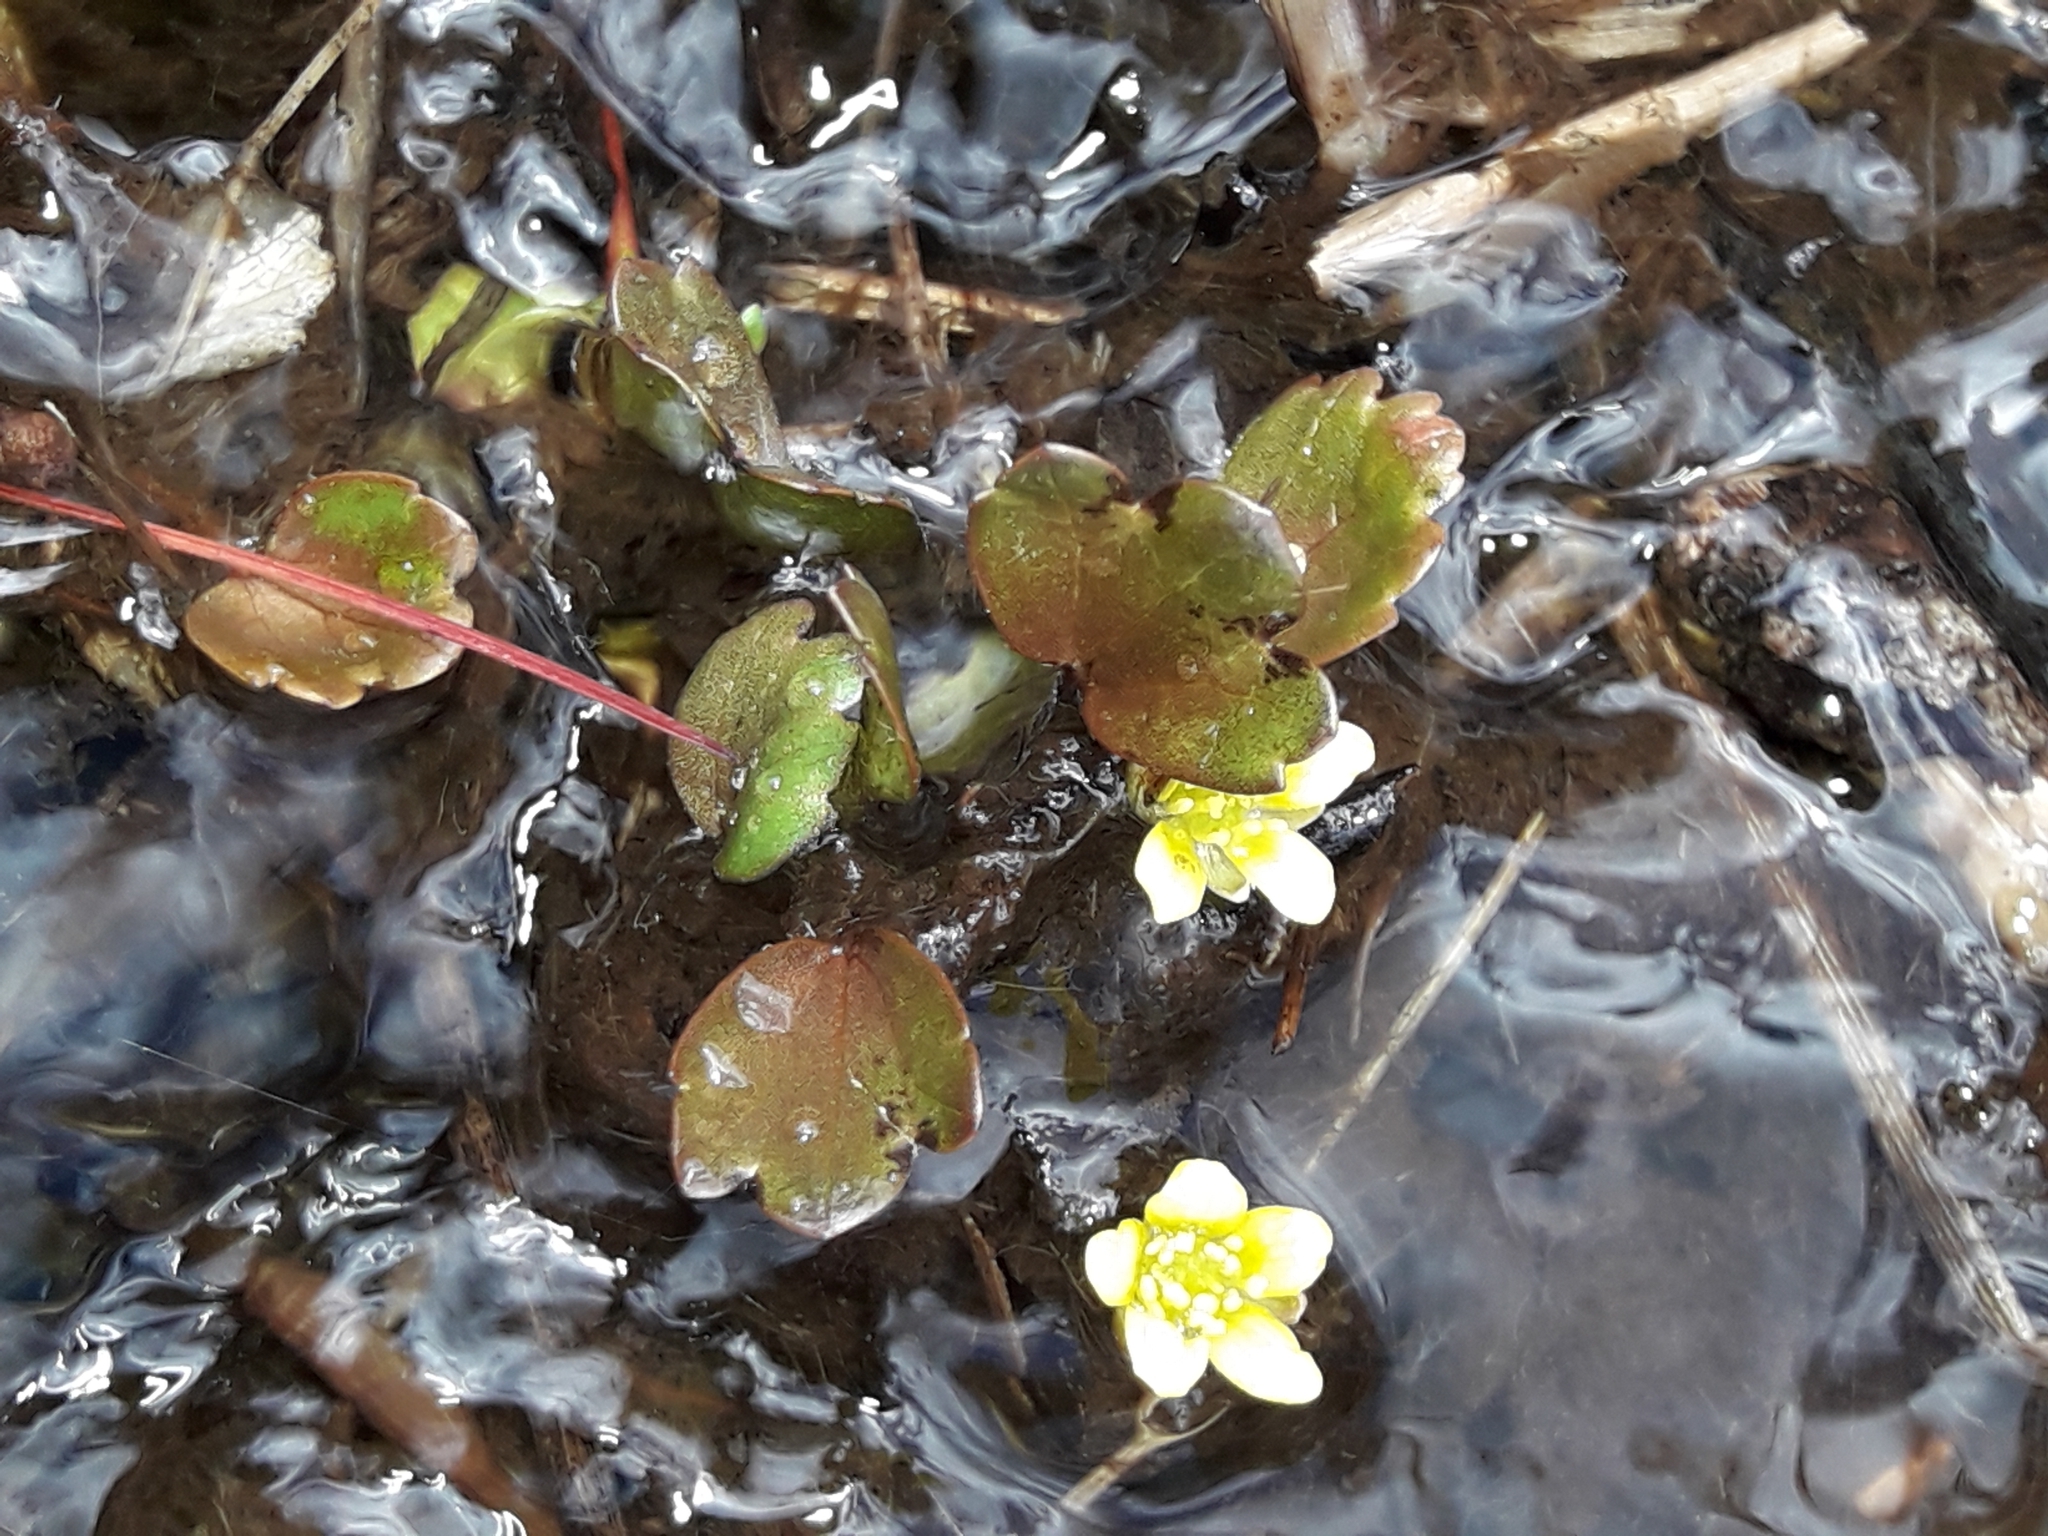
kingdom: Plantae
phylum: Tracheophyta
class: Magnoliopsida
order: Ranunculales
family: Ranunculaceae
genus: Ranunculus
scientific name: Ranunculus cheesemanii
